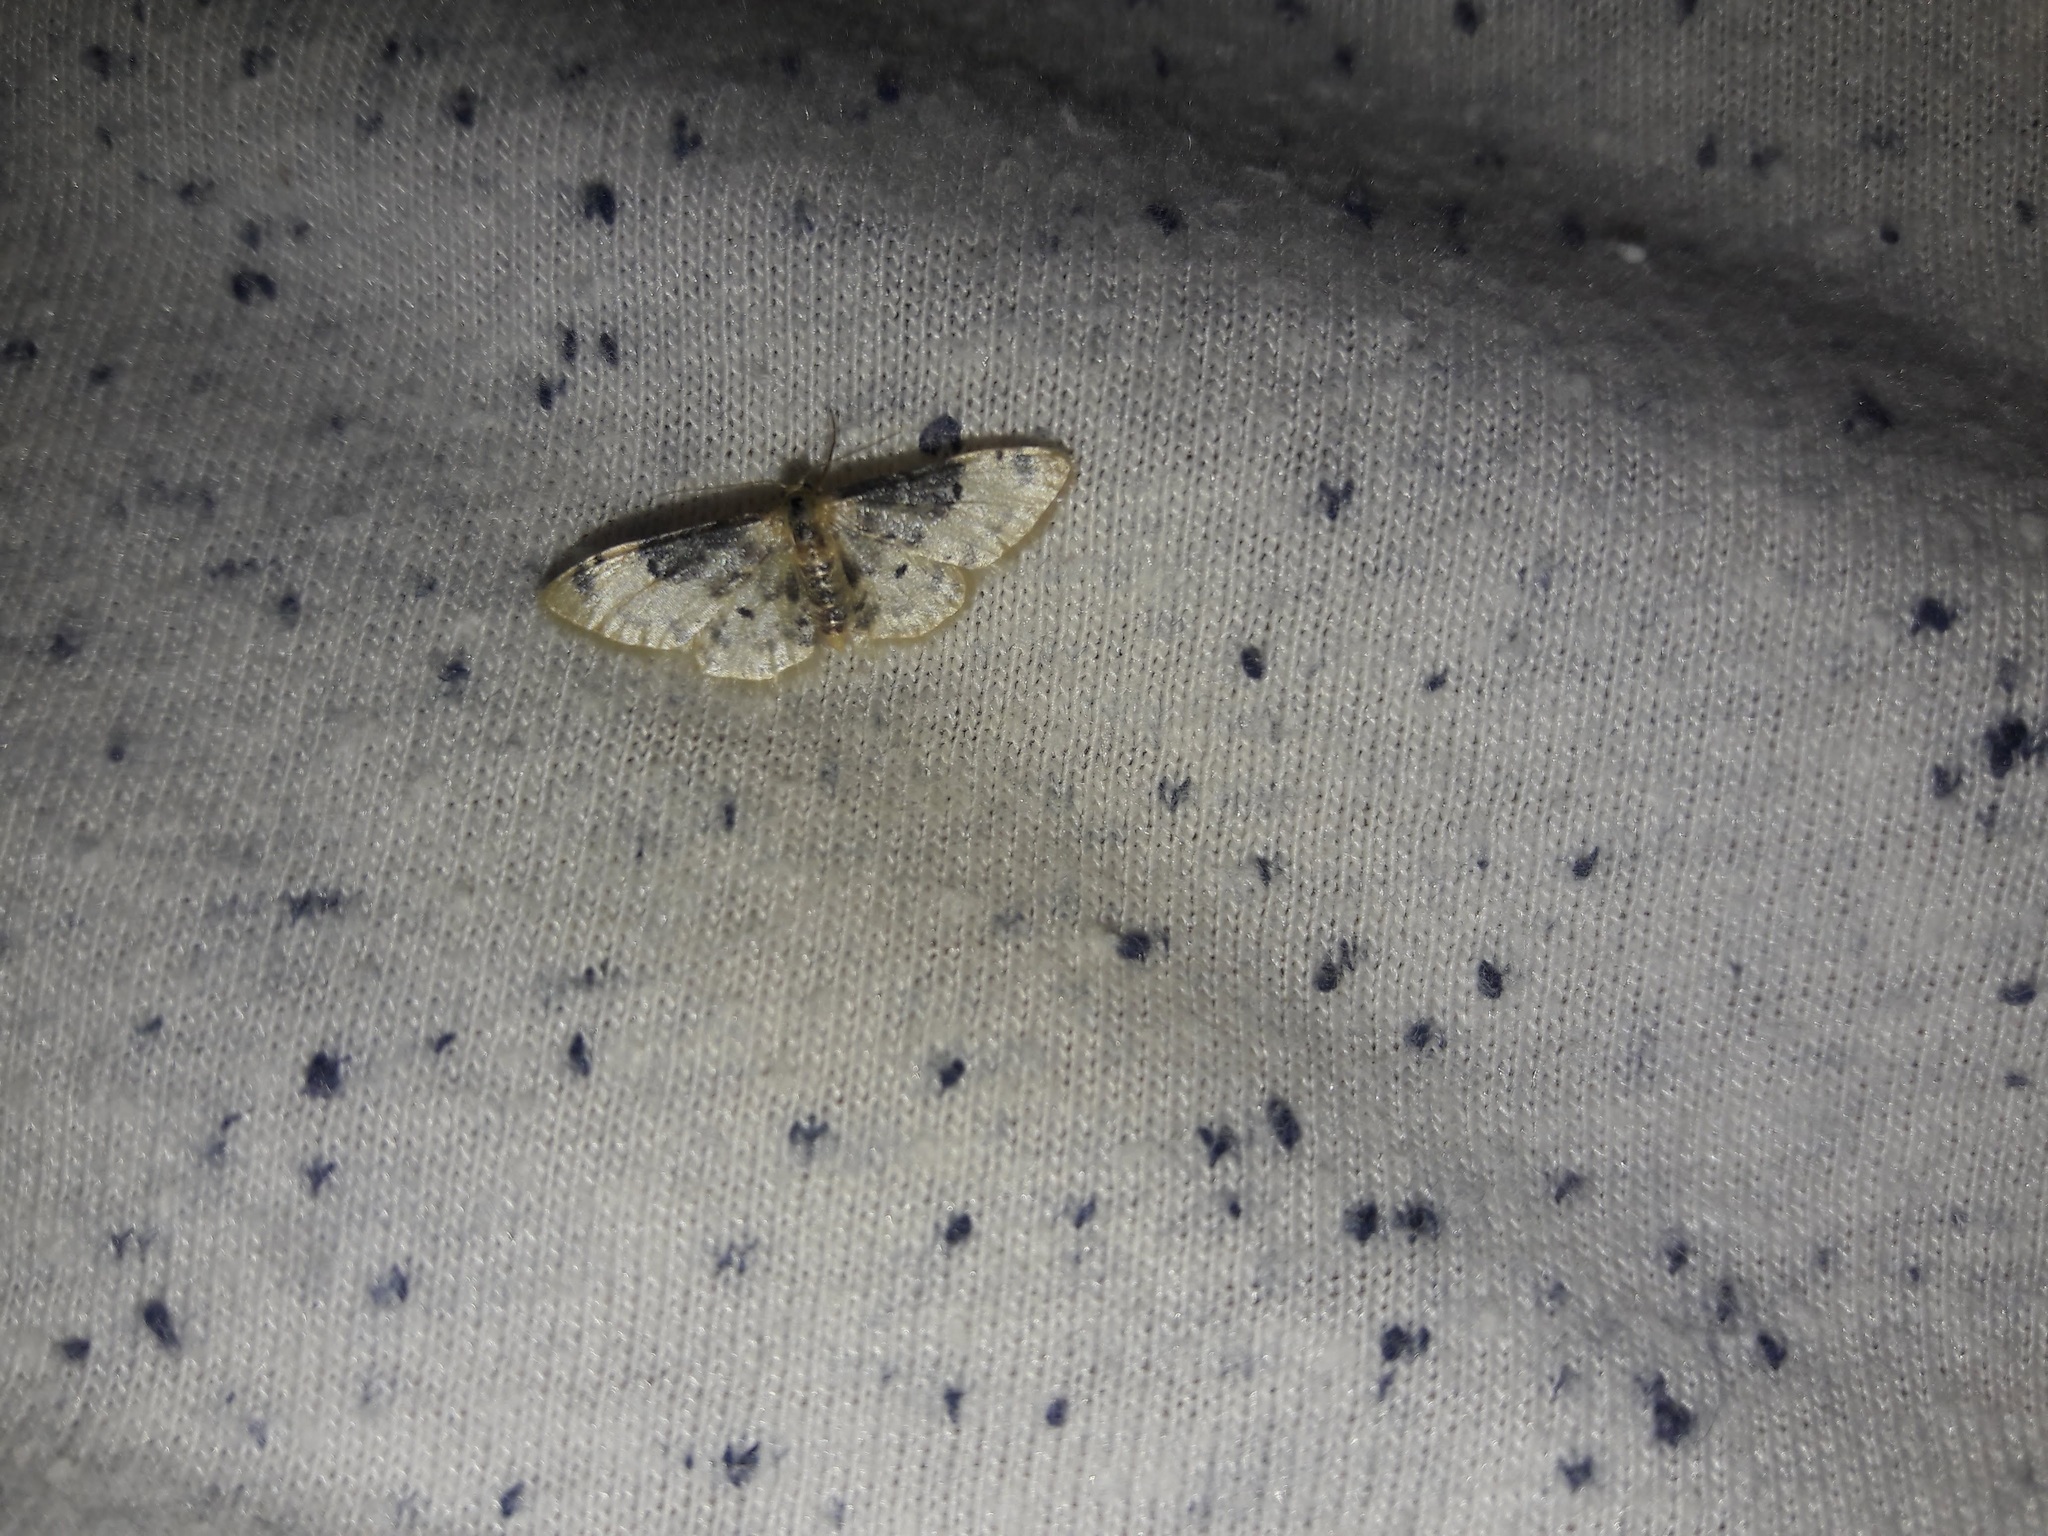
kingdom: Animalia
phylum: Arthropoda
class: Insecta
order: Lepidoptera
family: Geometridae
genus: Idaea
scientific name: Idaea filicata
